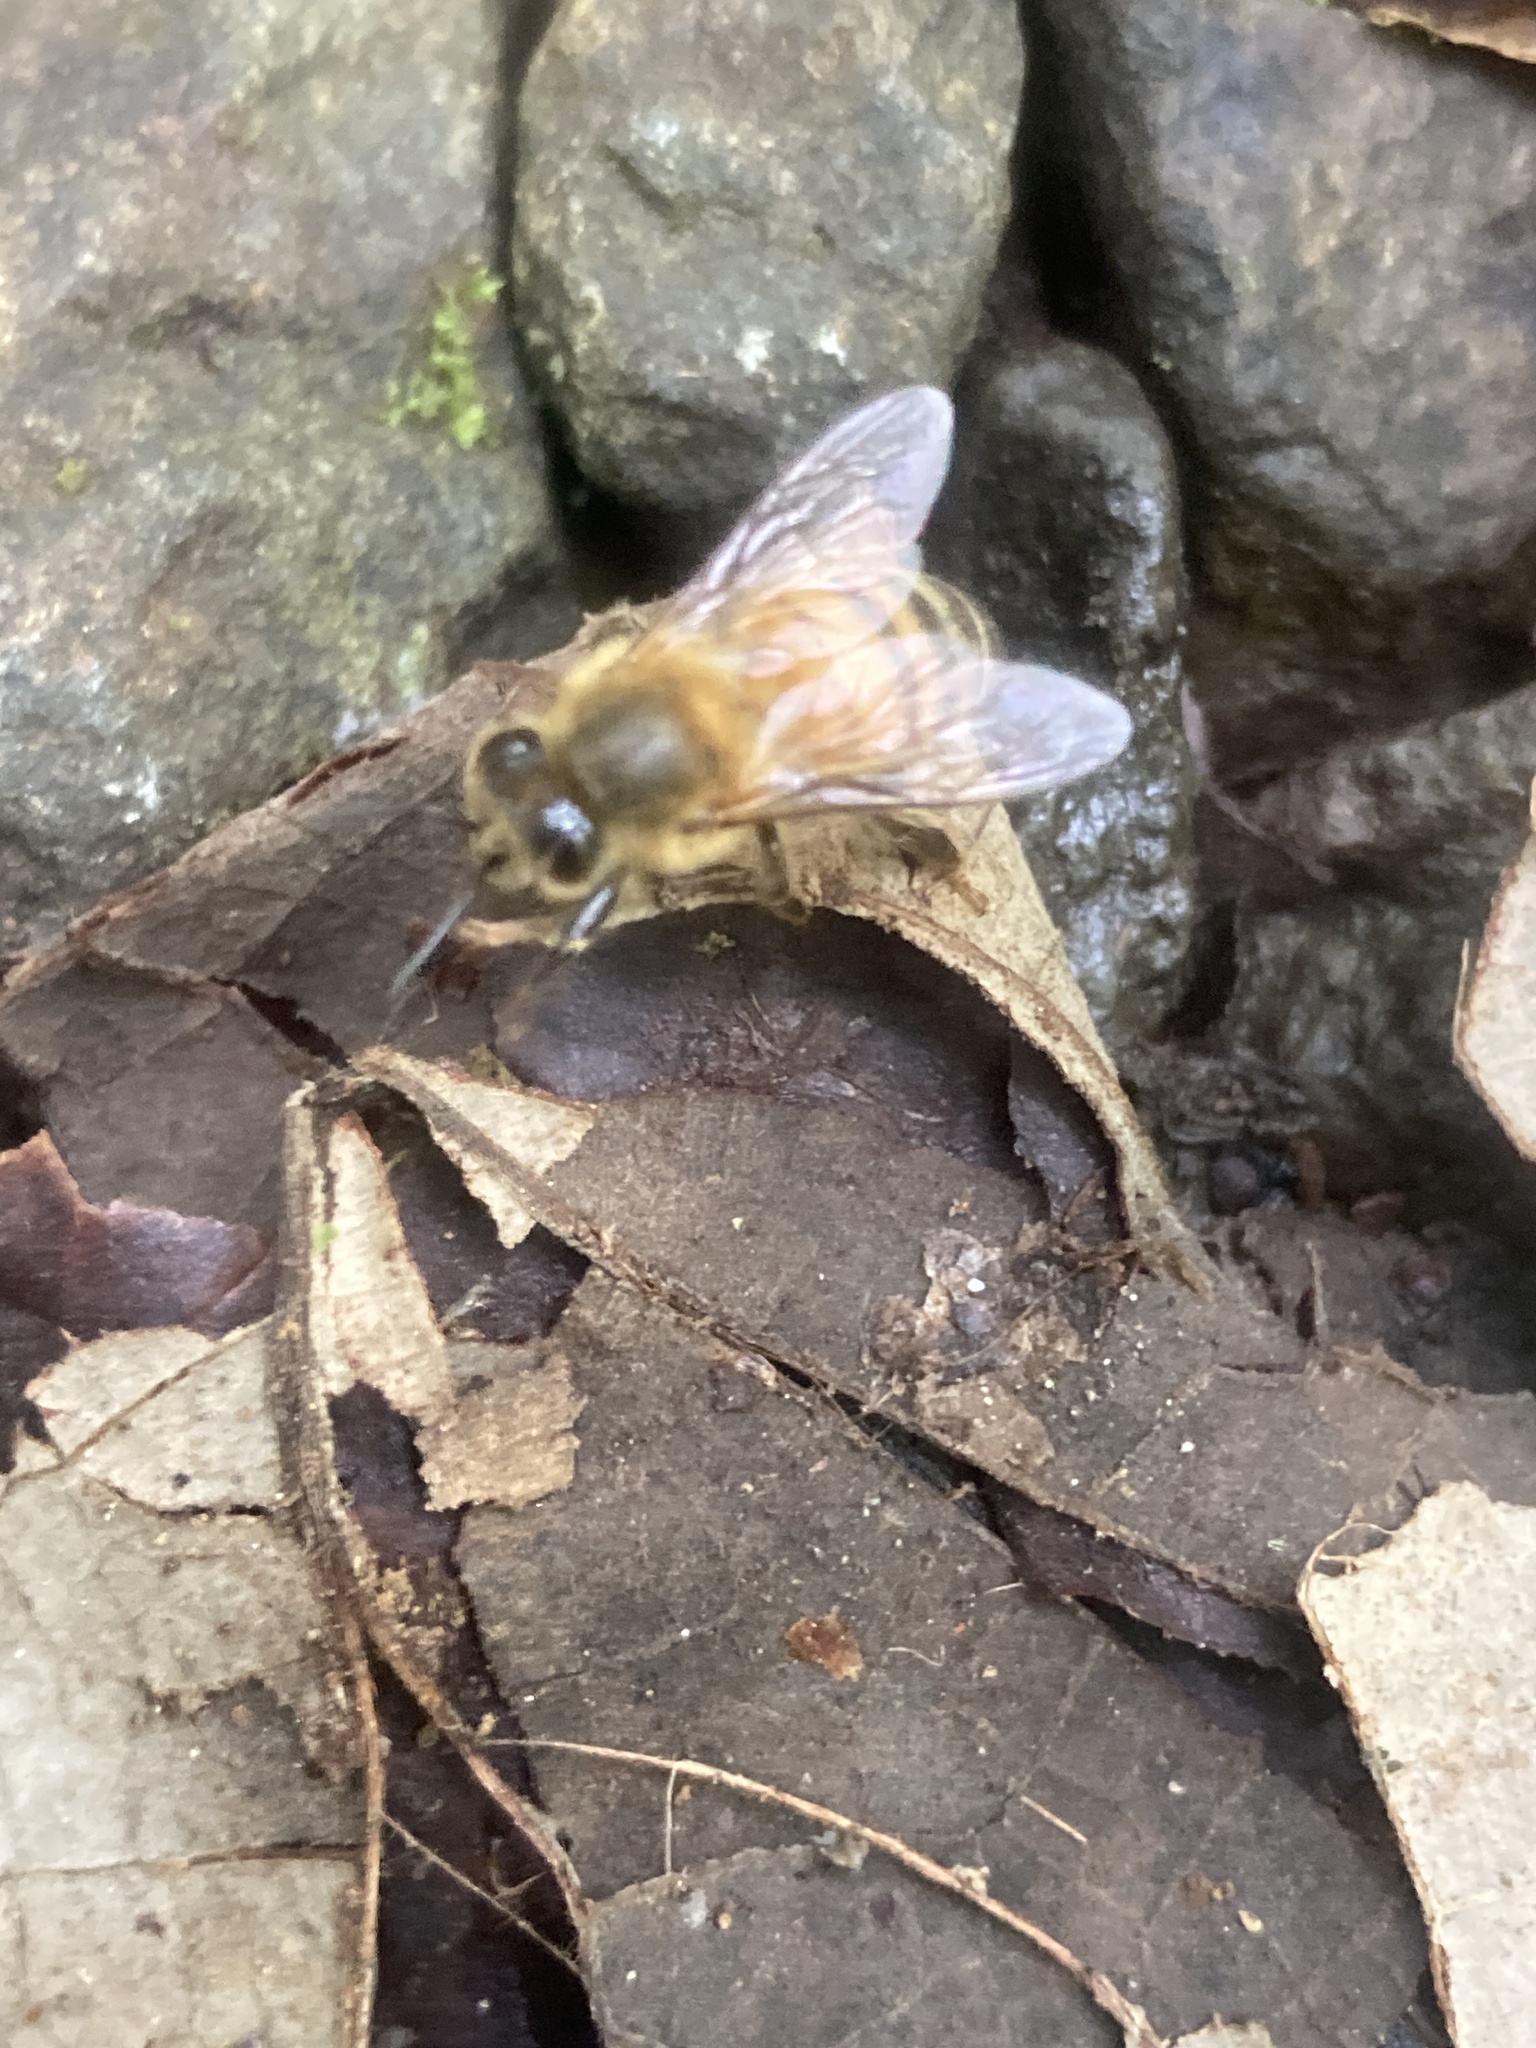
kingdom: Animalia
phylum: Arthropoda
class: Insecta
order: Hymenoptera
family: Apidae
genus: Apis
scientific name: Apis mellifera
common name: Honey bee
